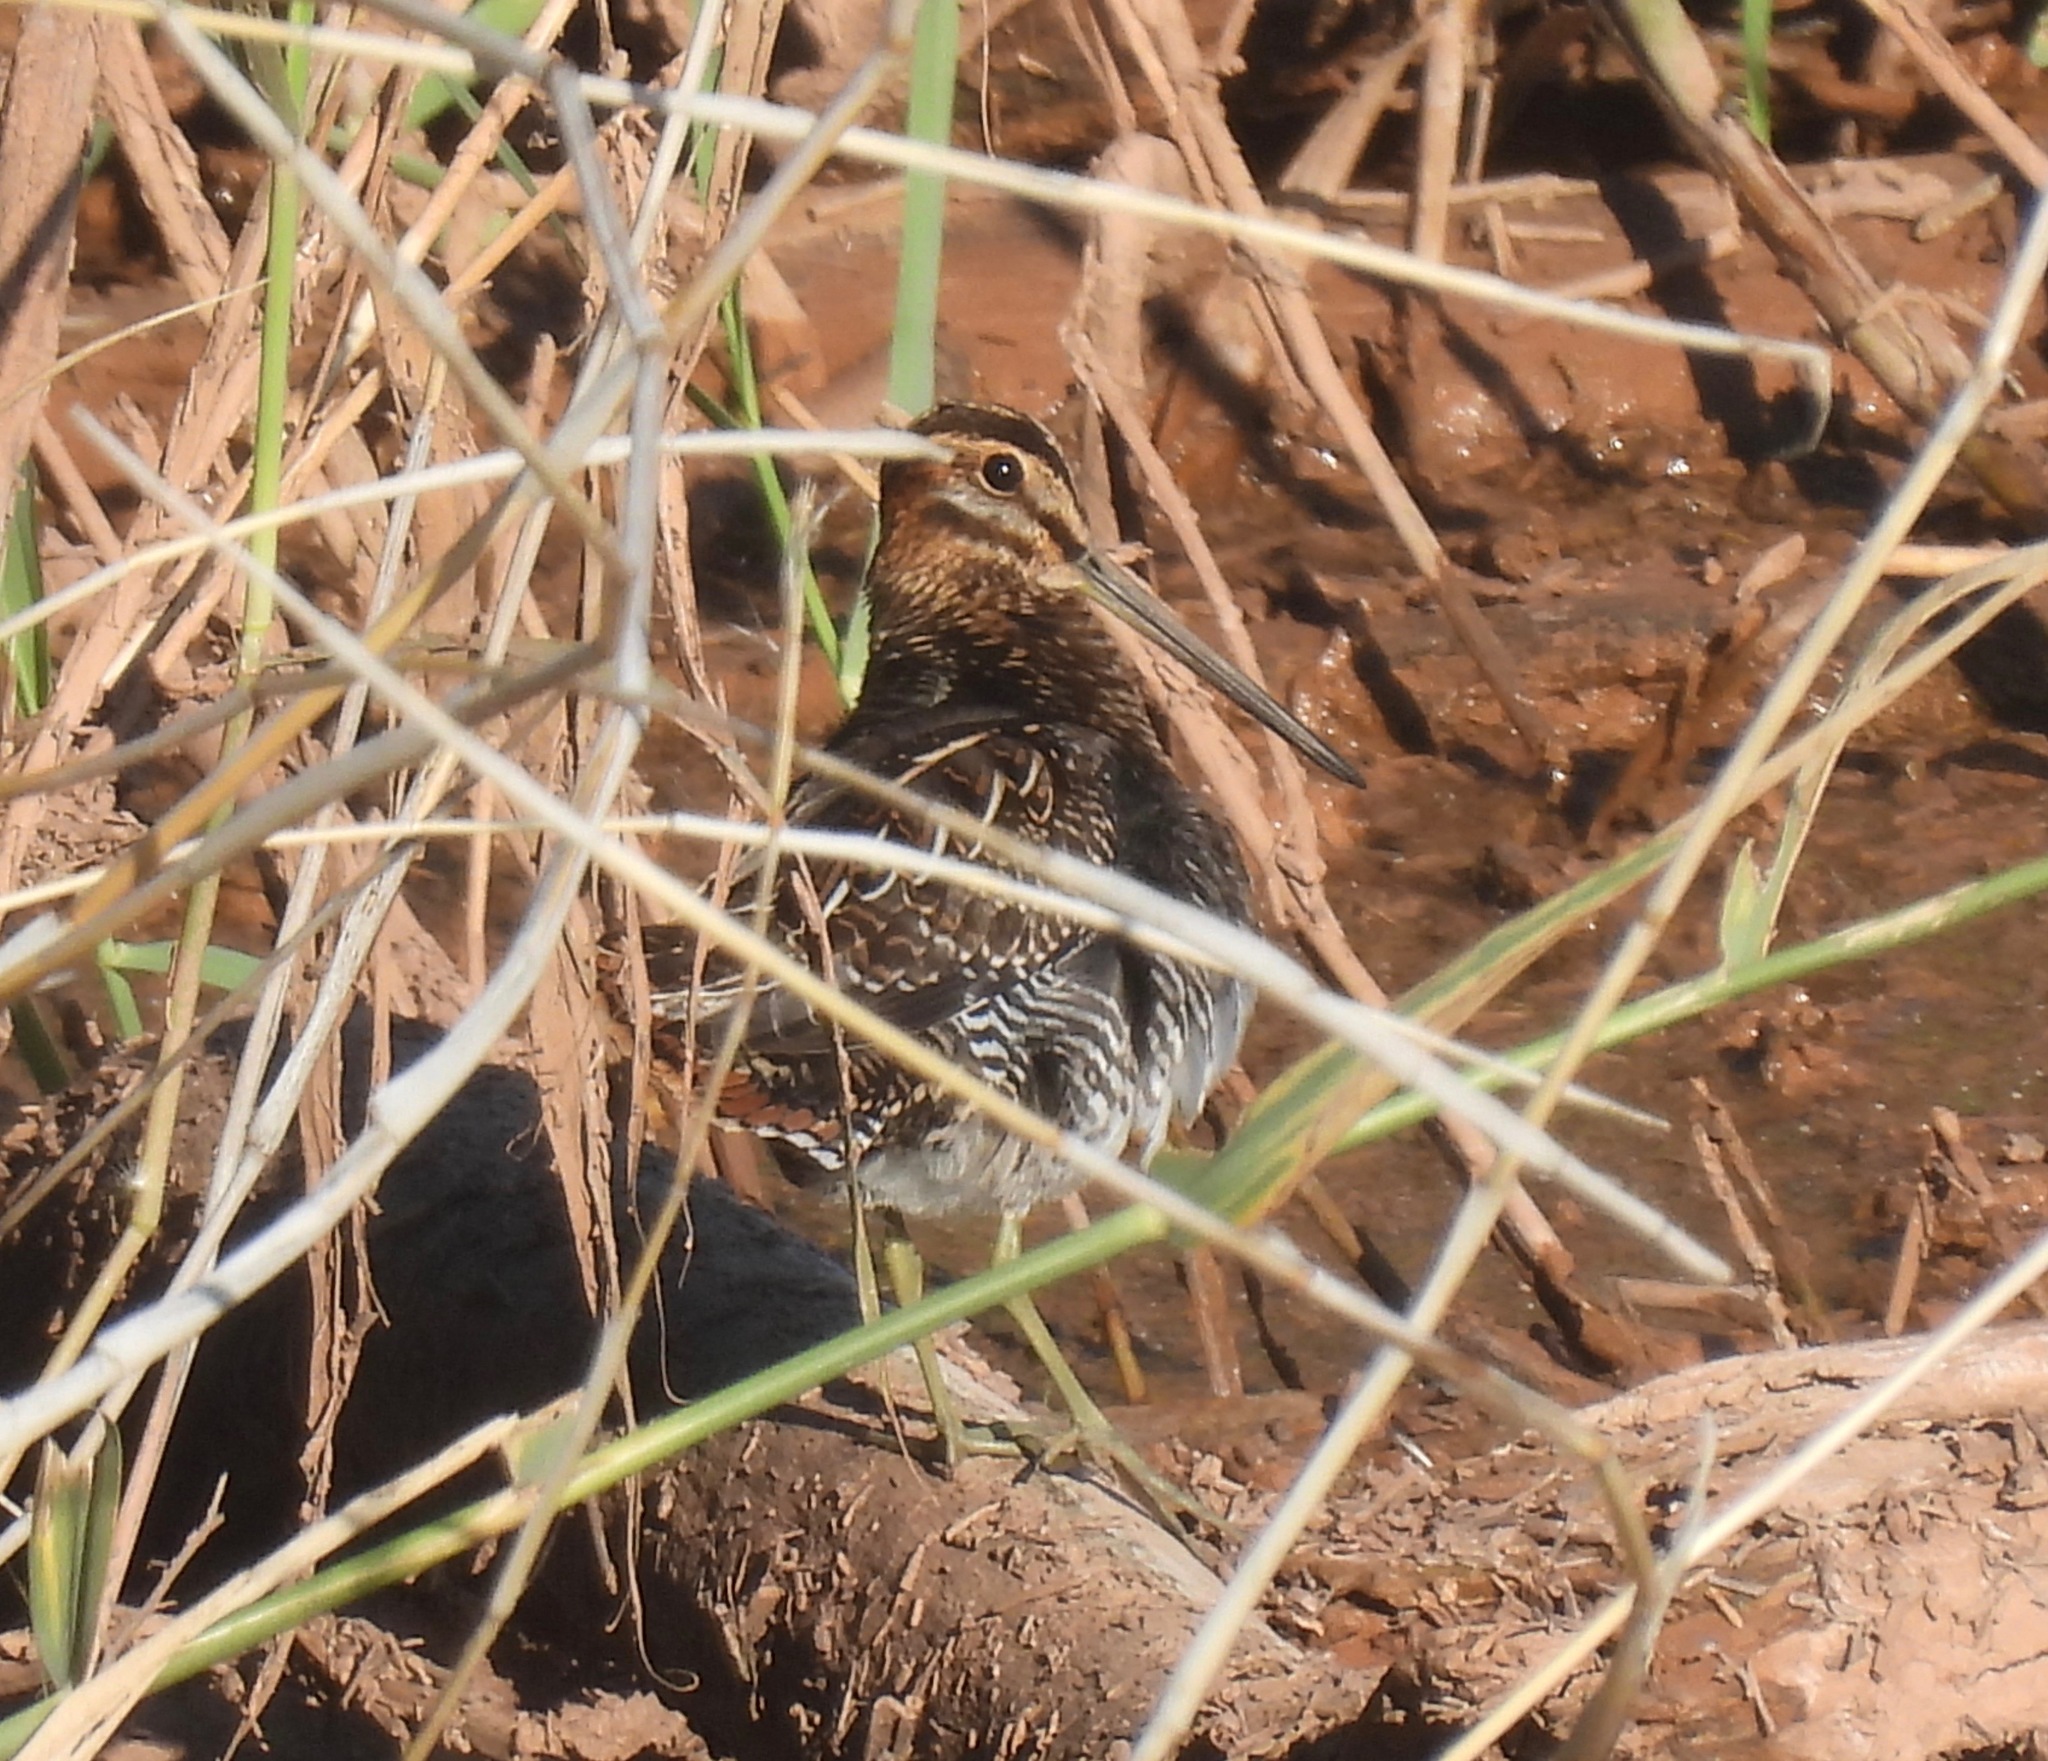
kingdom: Animalia
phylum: Chordata
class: Aves
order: Charadriiformes
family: Scolopacidae
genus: Gallinago
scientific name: Gallinago delicata
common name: Wilson's snipe
